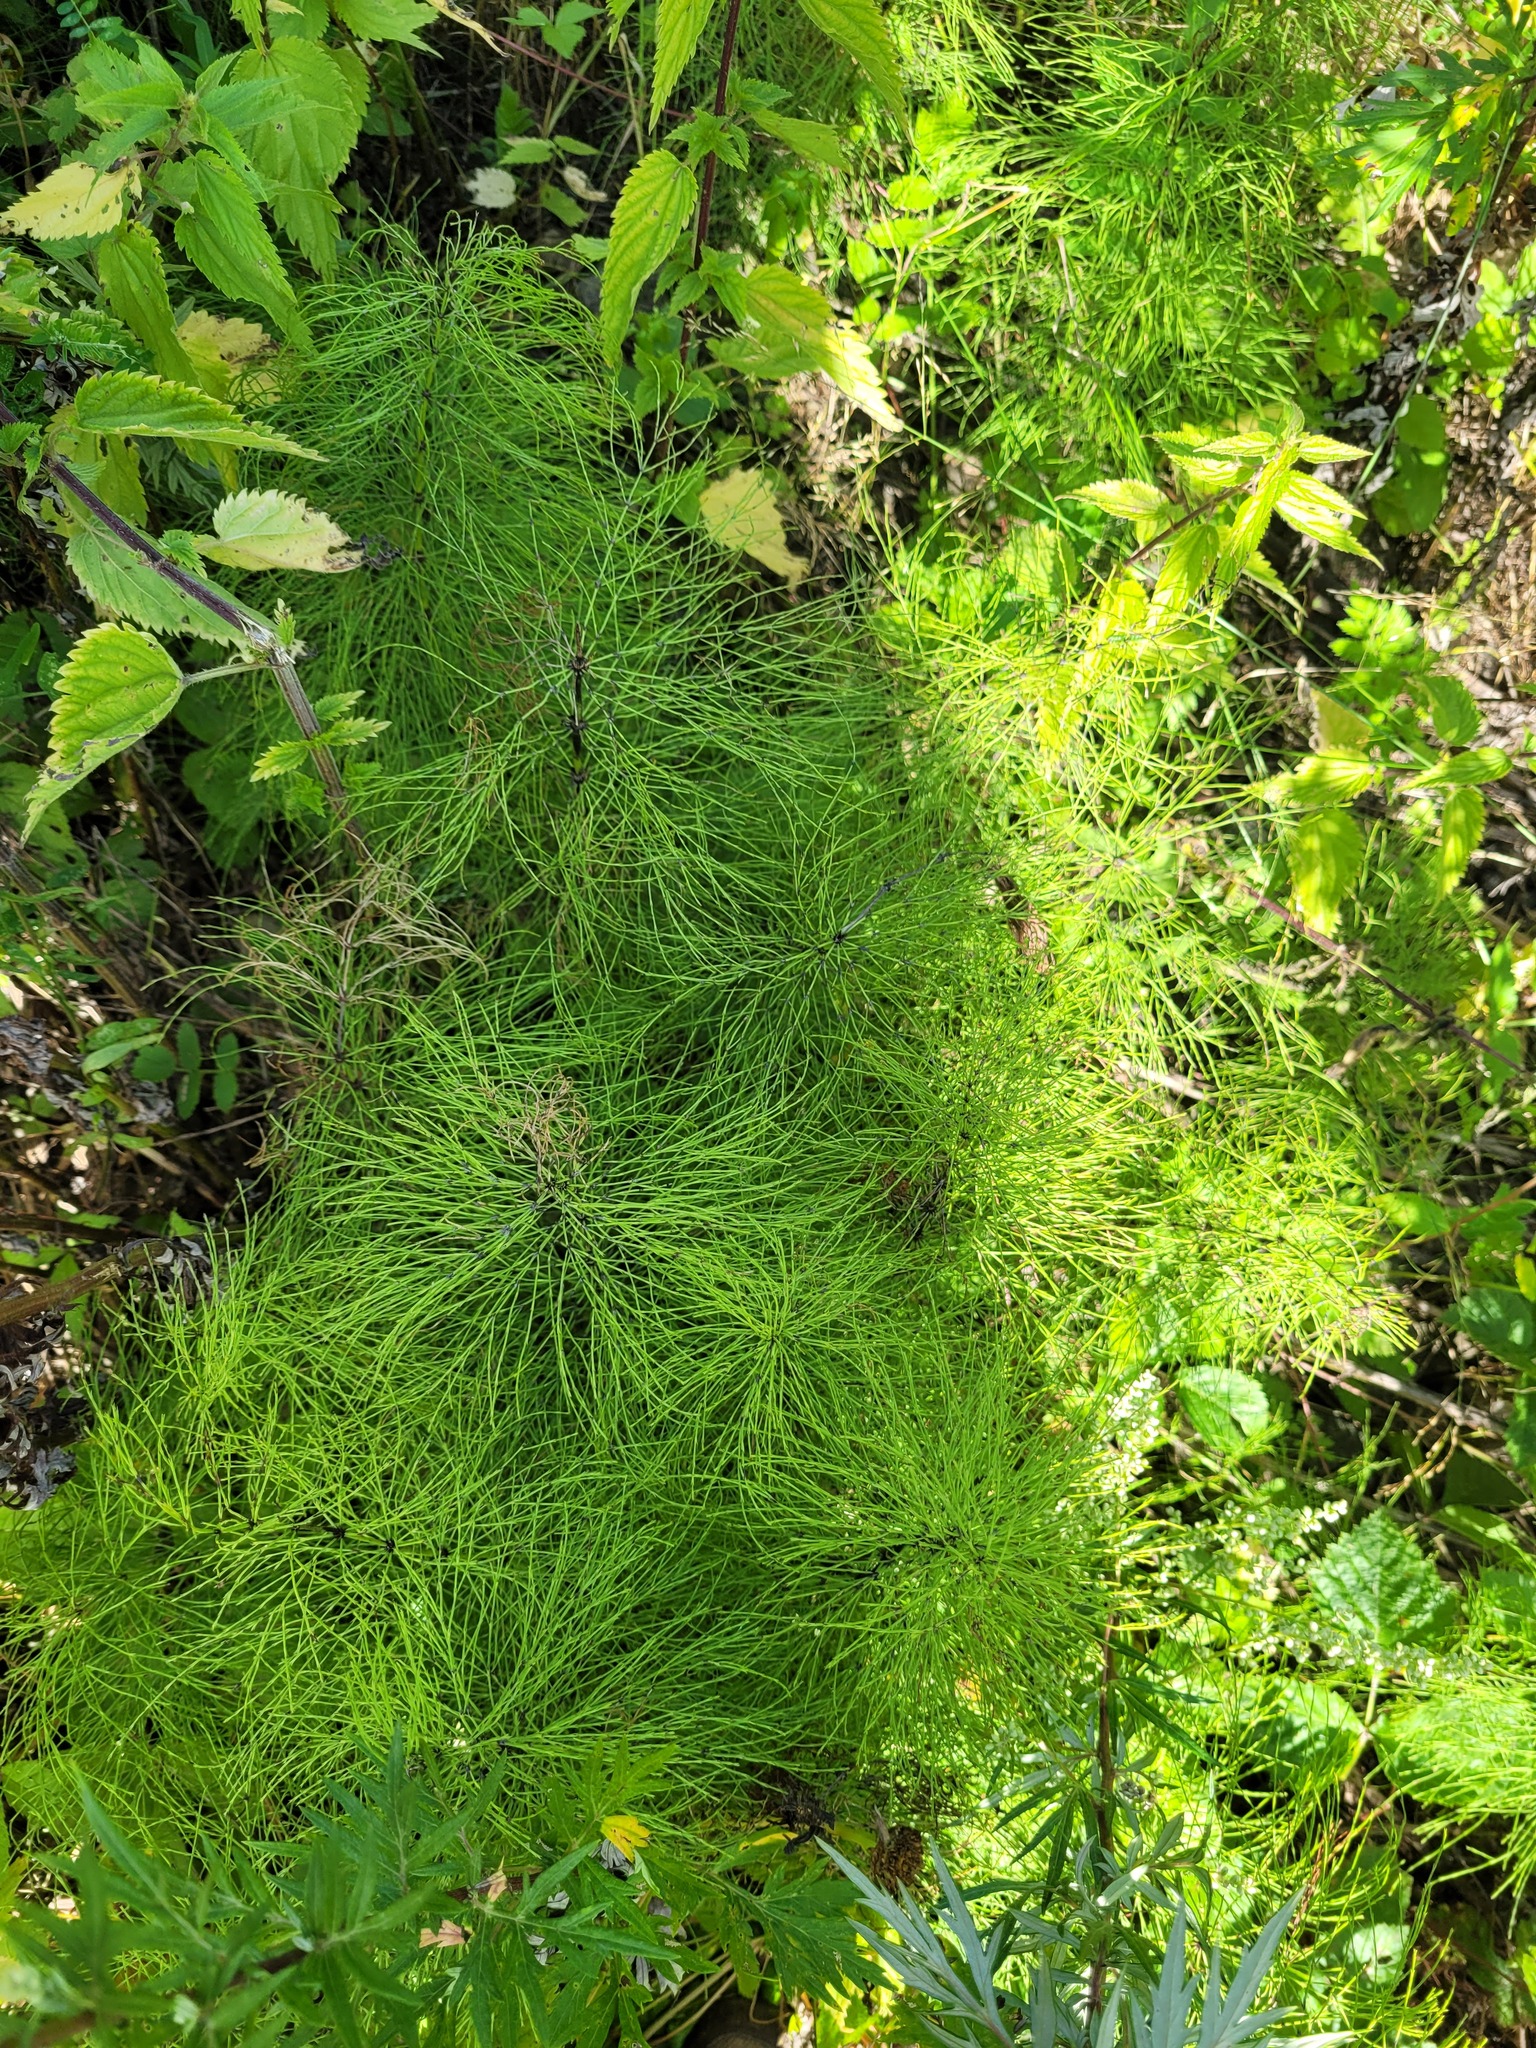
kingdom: Plantae
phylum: Tracheophyta
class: Polypodiopsida
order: Equisetales
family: Equisetaceae
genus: Equisetum
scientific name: Equisetum sylvaticum
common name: Wood horsetail
